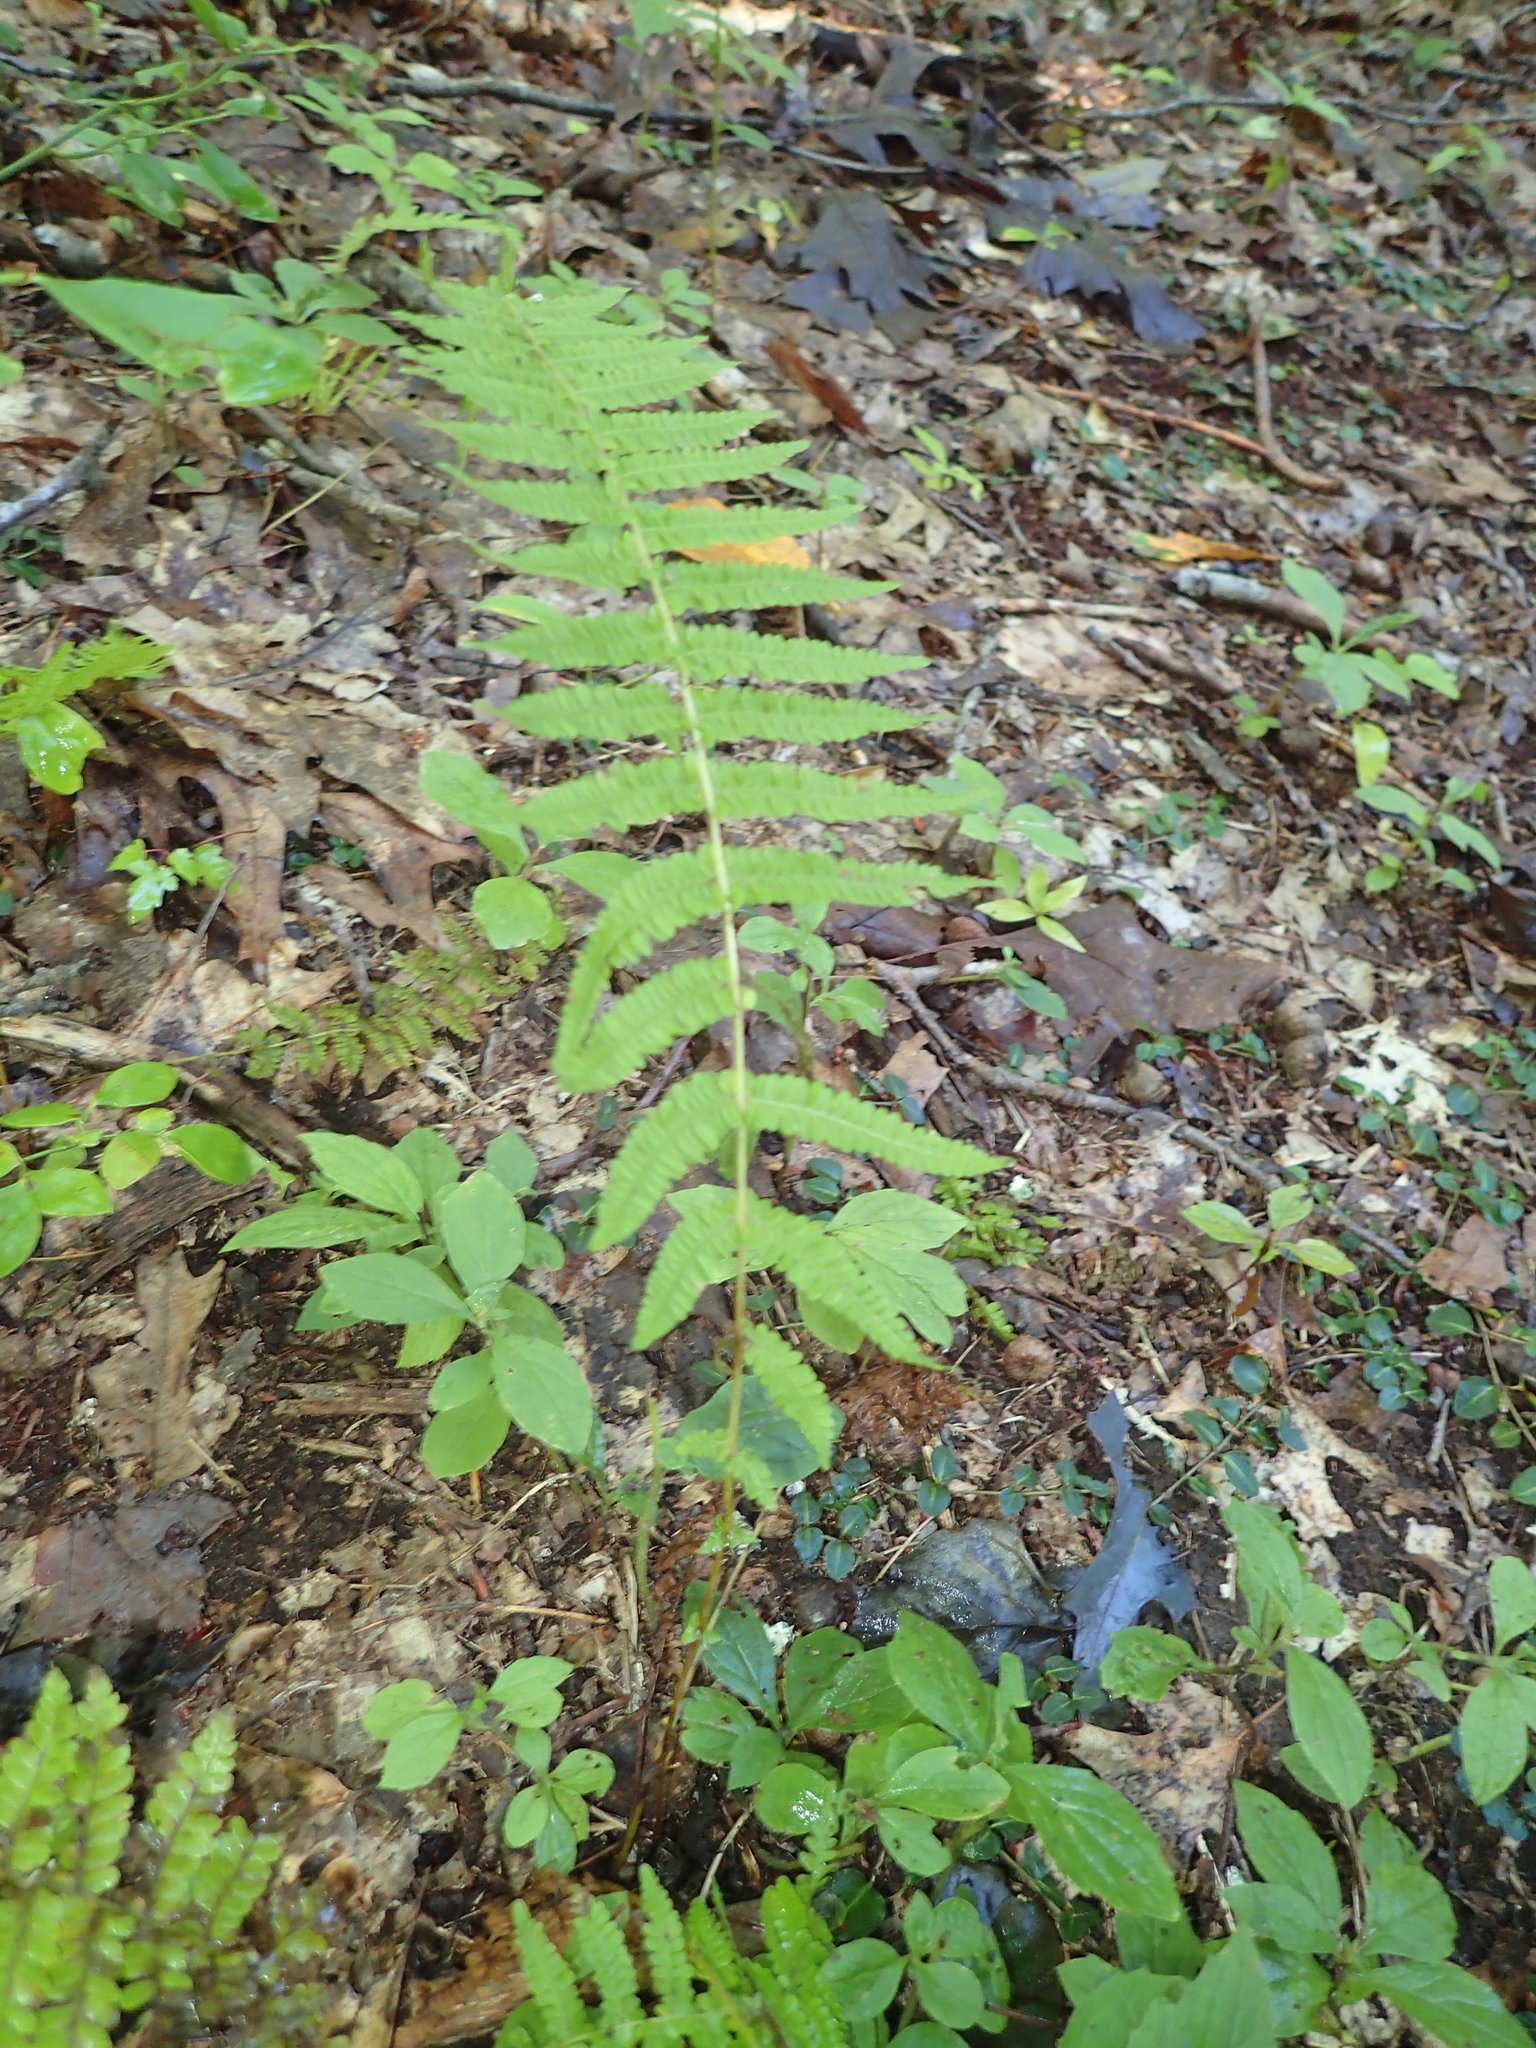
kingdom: Plantae
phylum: Tracheophyta
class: Polypodiopsida
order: Polypodiales
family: Thelypteridaceae
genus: Amauropelta
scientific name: Amauropelta noveboracensis
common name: New york fern
